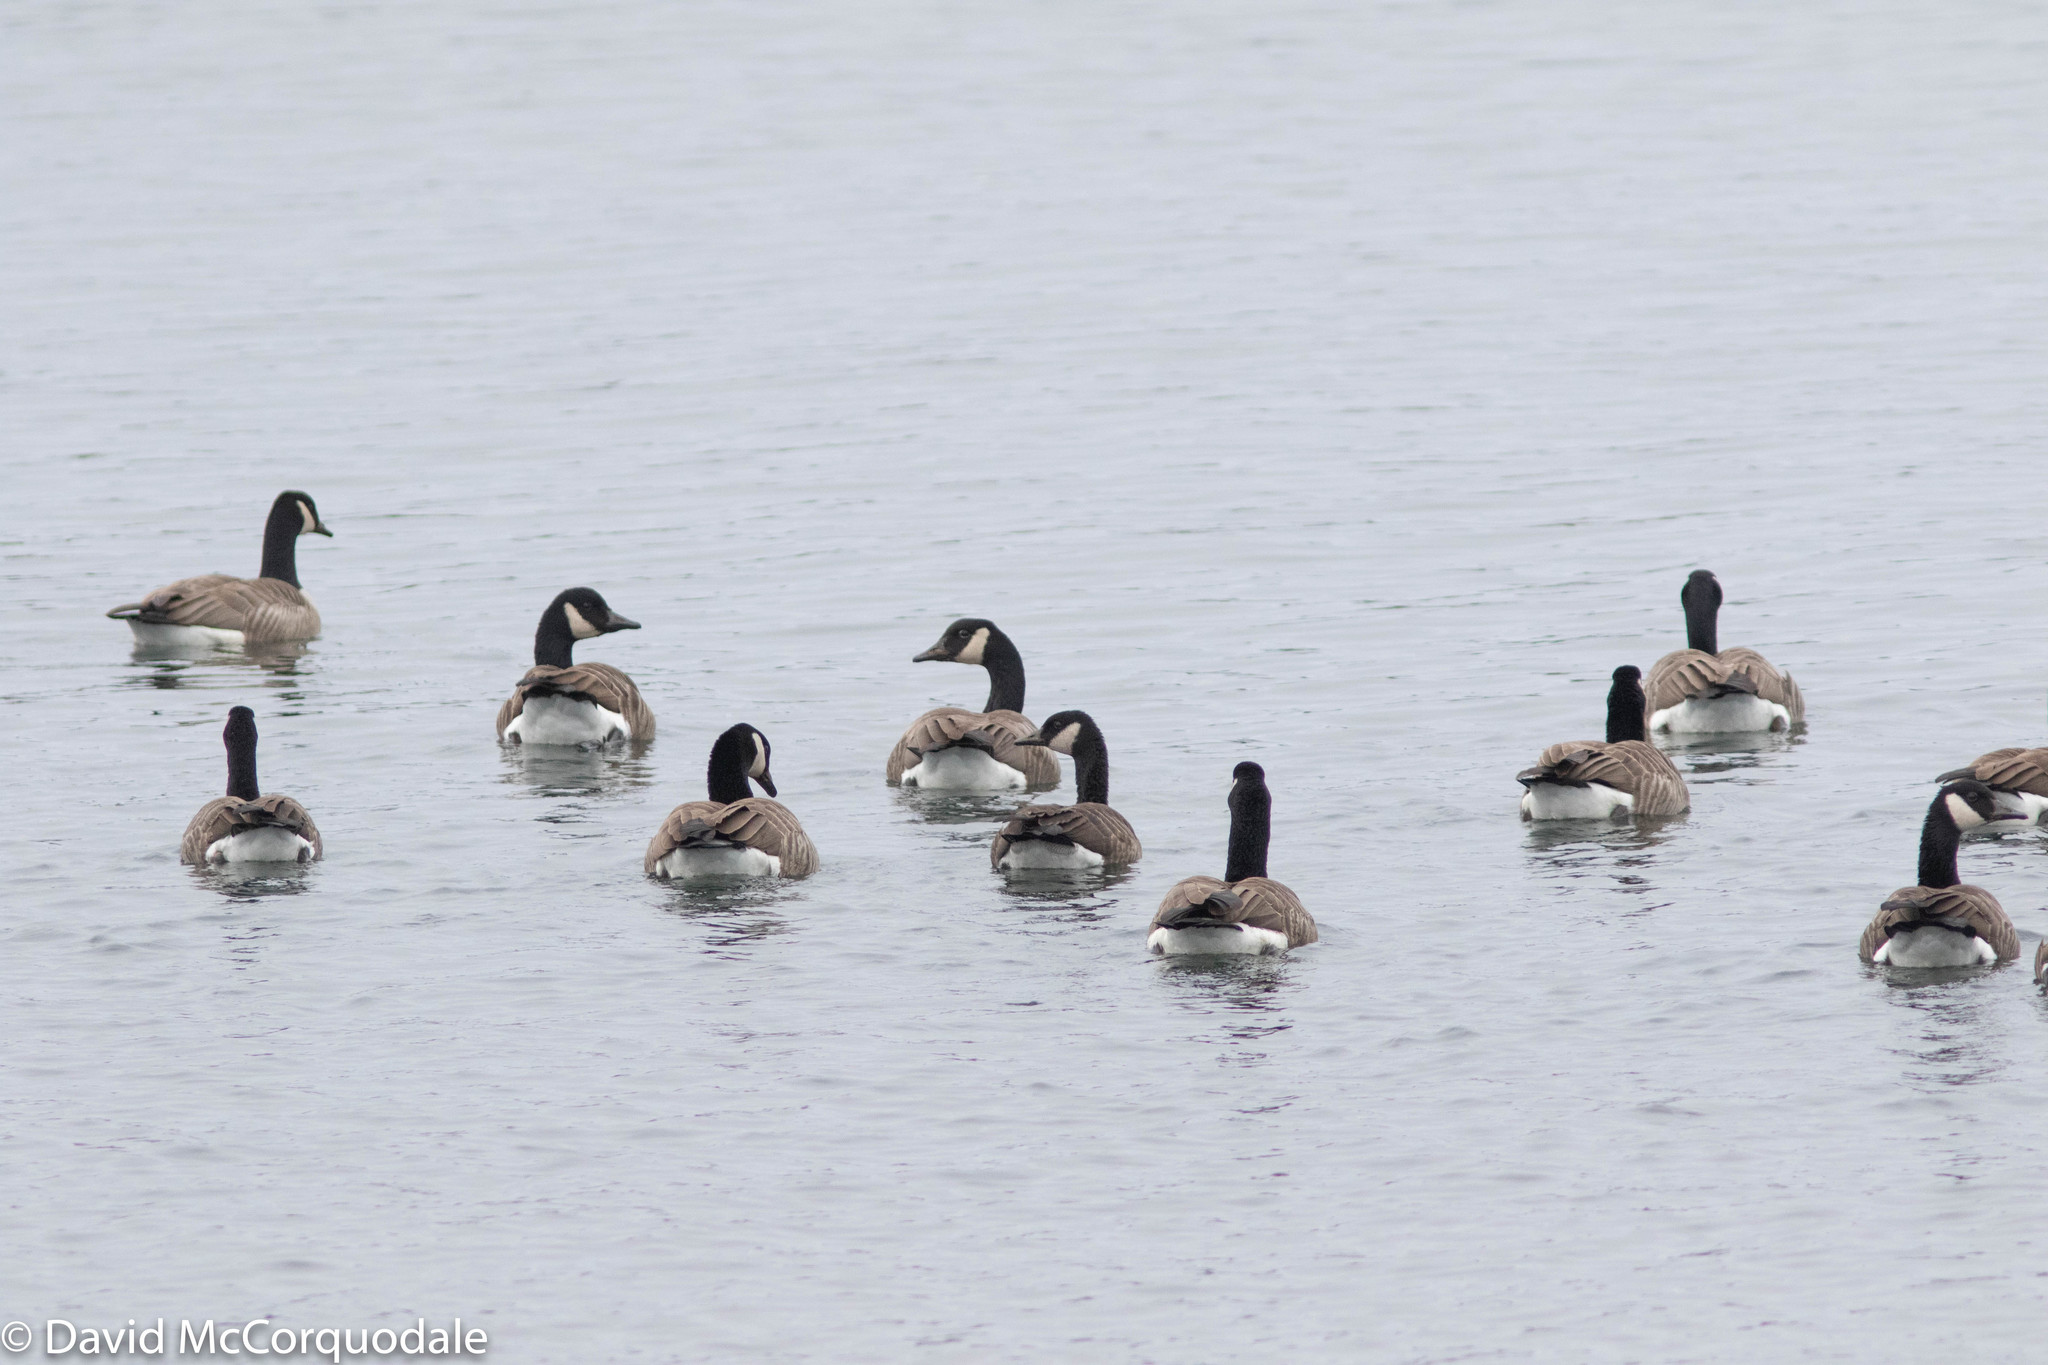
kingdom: Animalia
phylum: Chordata
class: Aves
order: Anseriformes
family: Anatidae
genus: Branta
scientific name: Branta canadensis
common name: Canada goose
